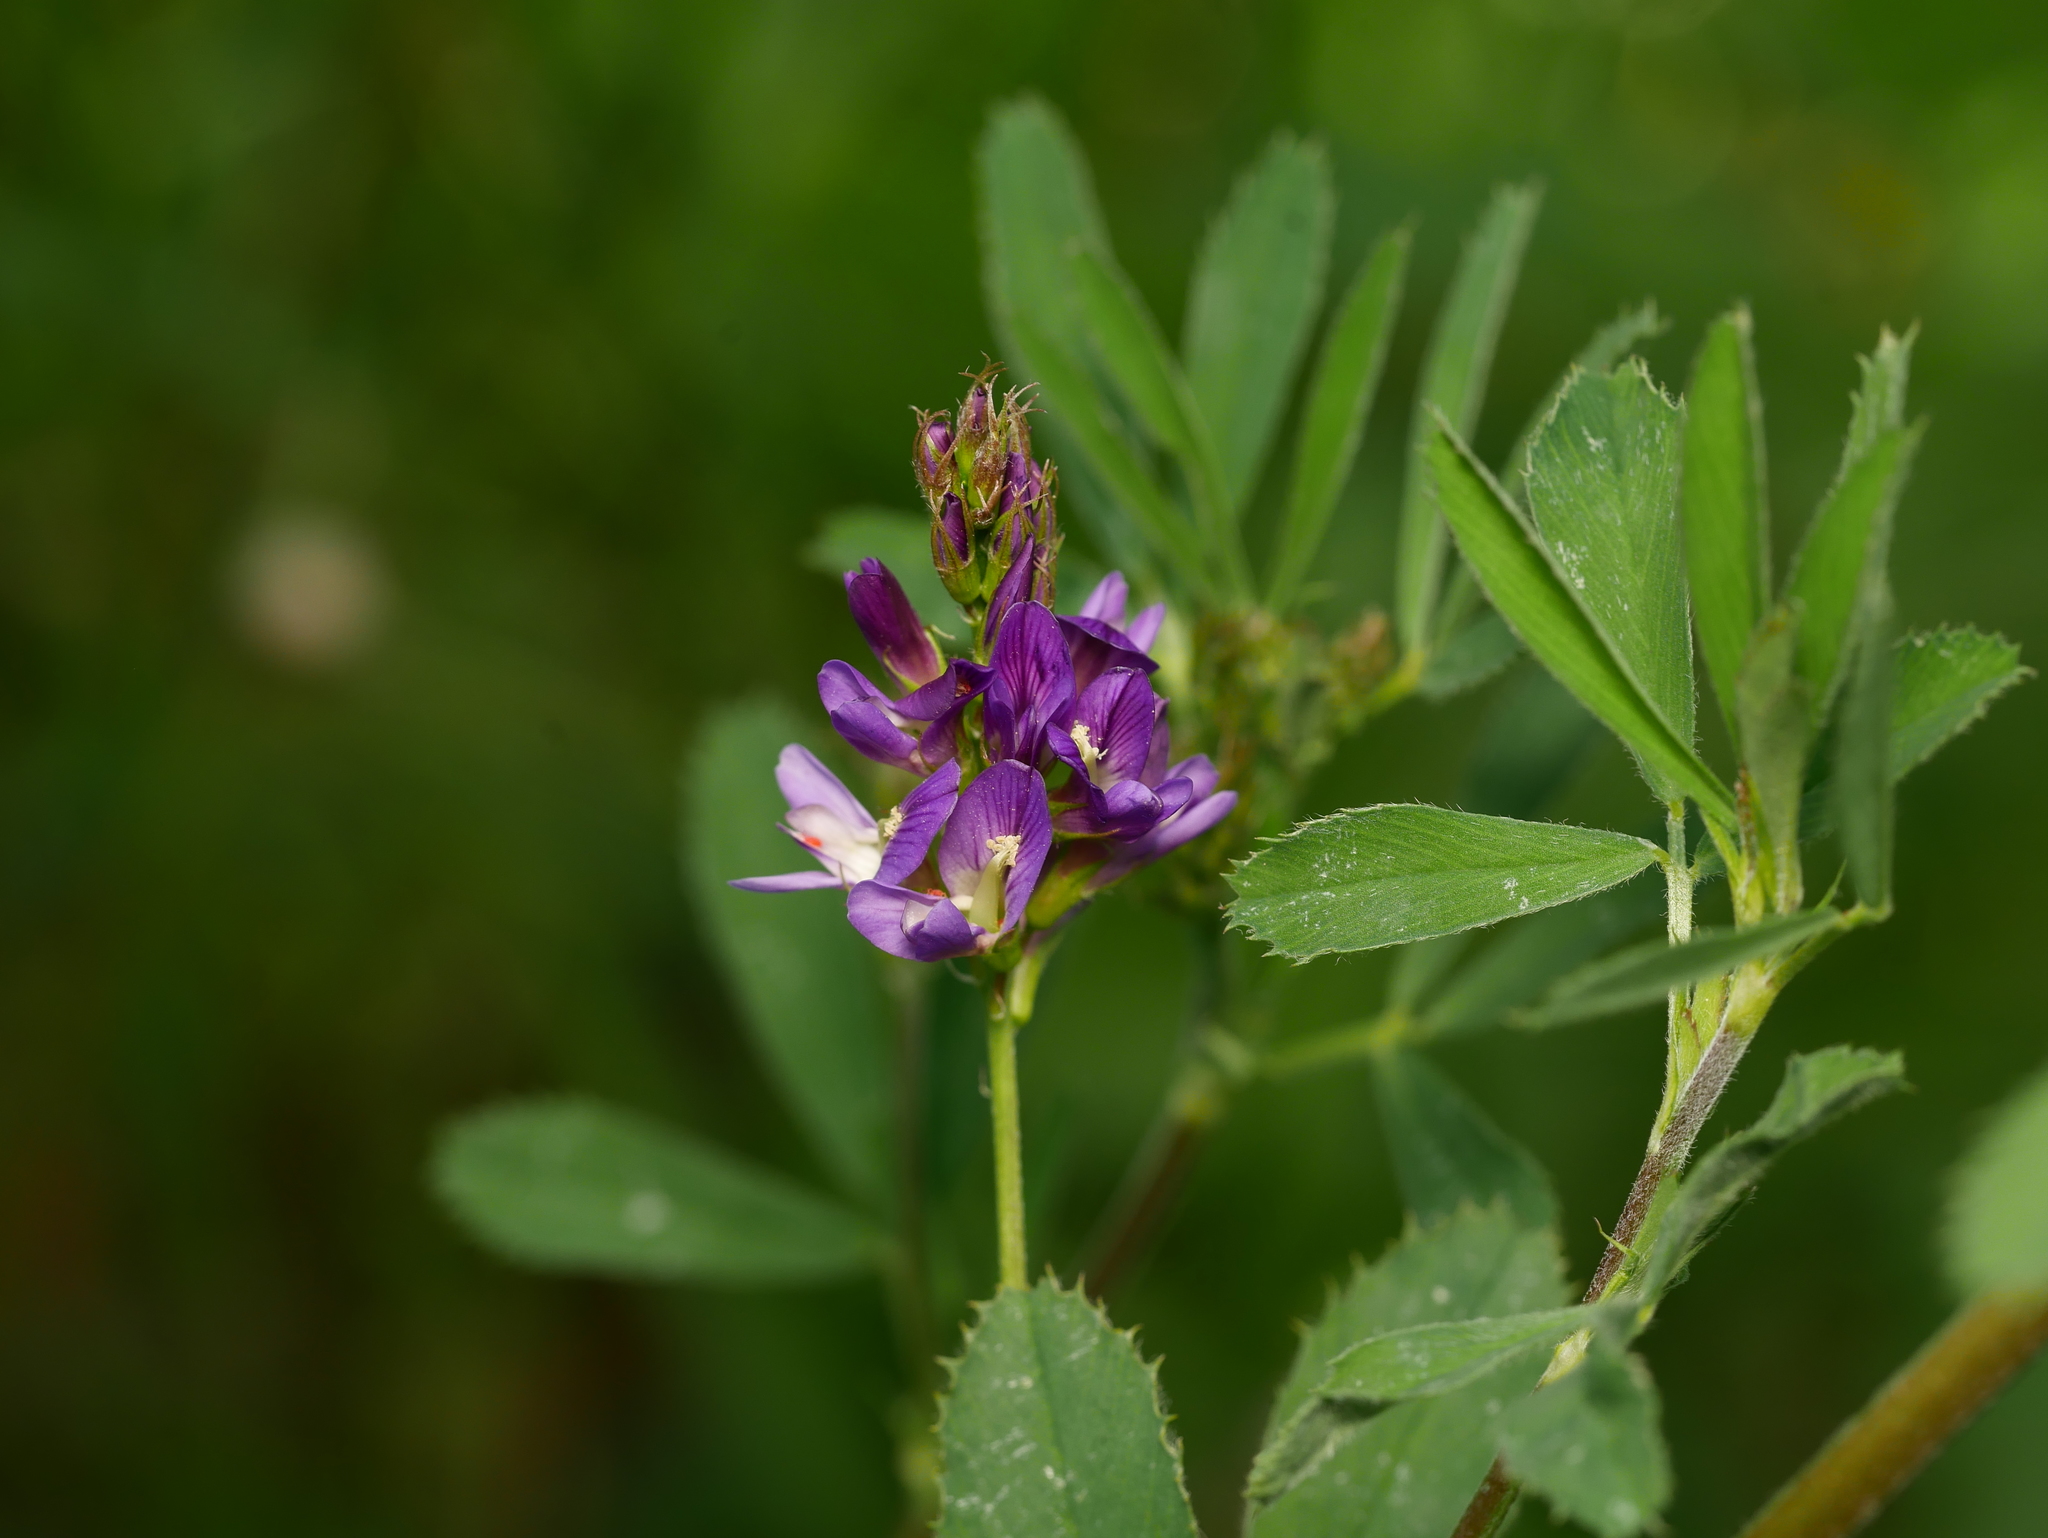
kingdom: Plantae
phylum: Tracheophyta
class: Magnoliopsida
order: Fabales
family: Fabaceae
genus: Medicago
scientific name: Medicago sativa
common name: Alfalfa
